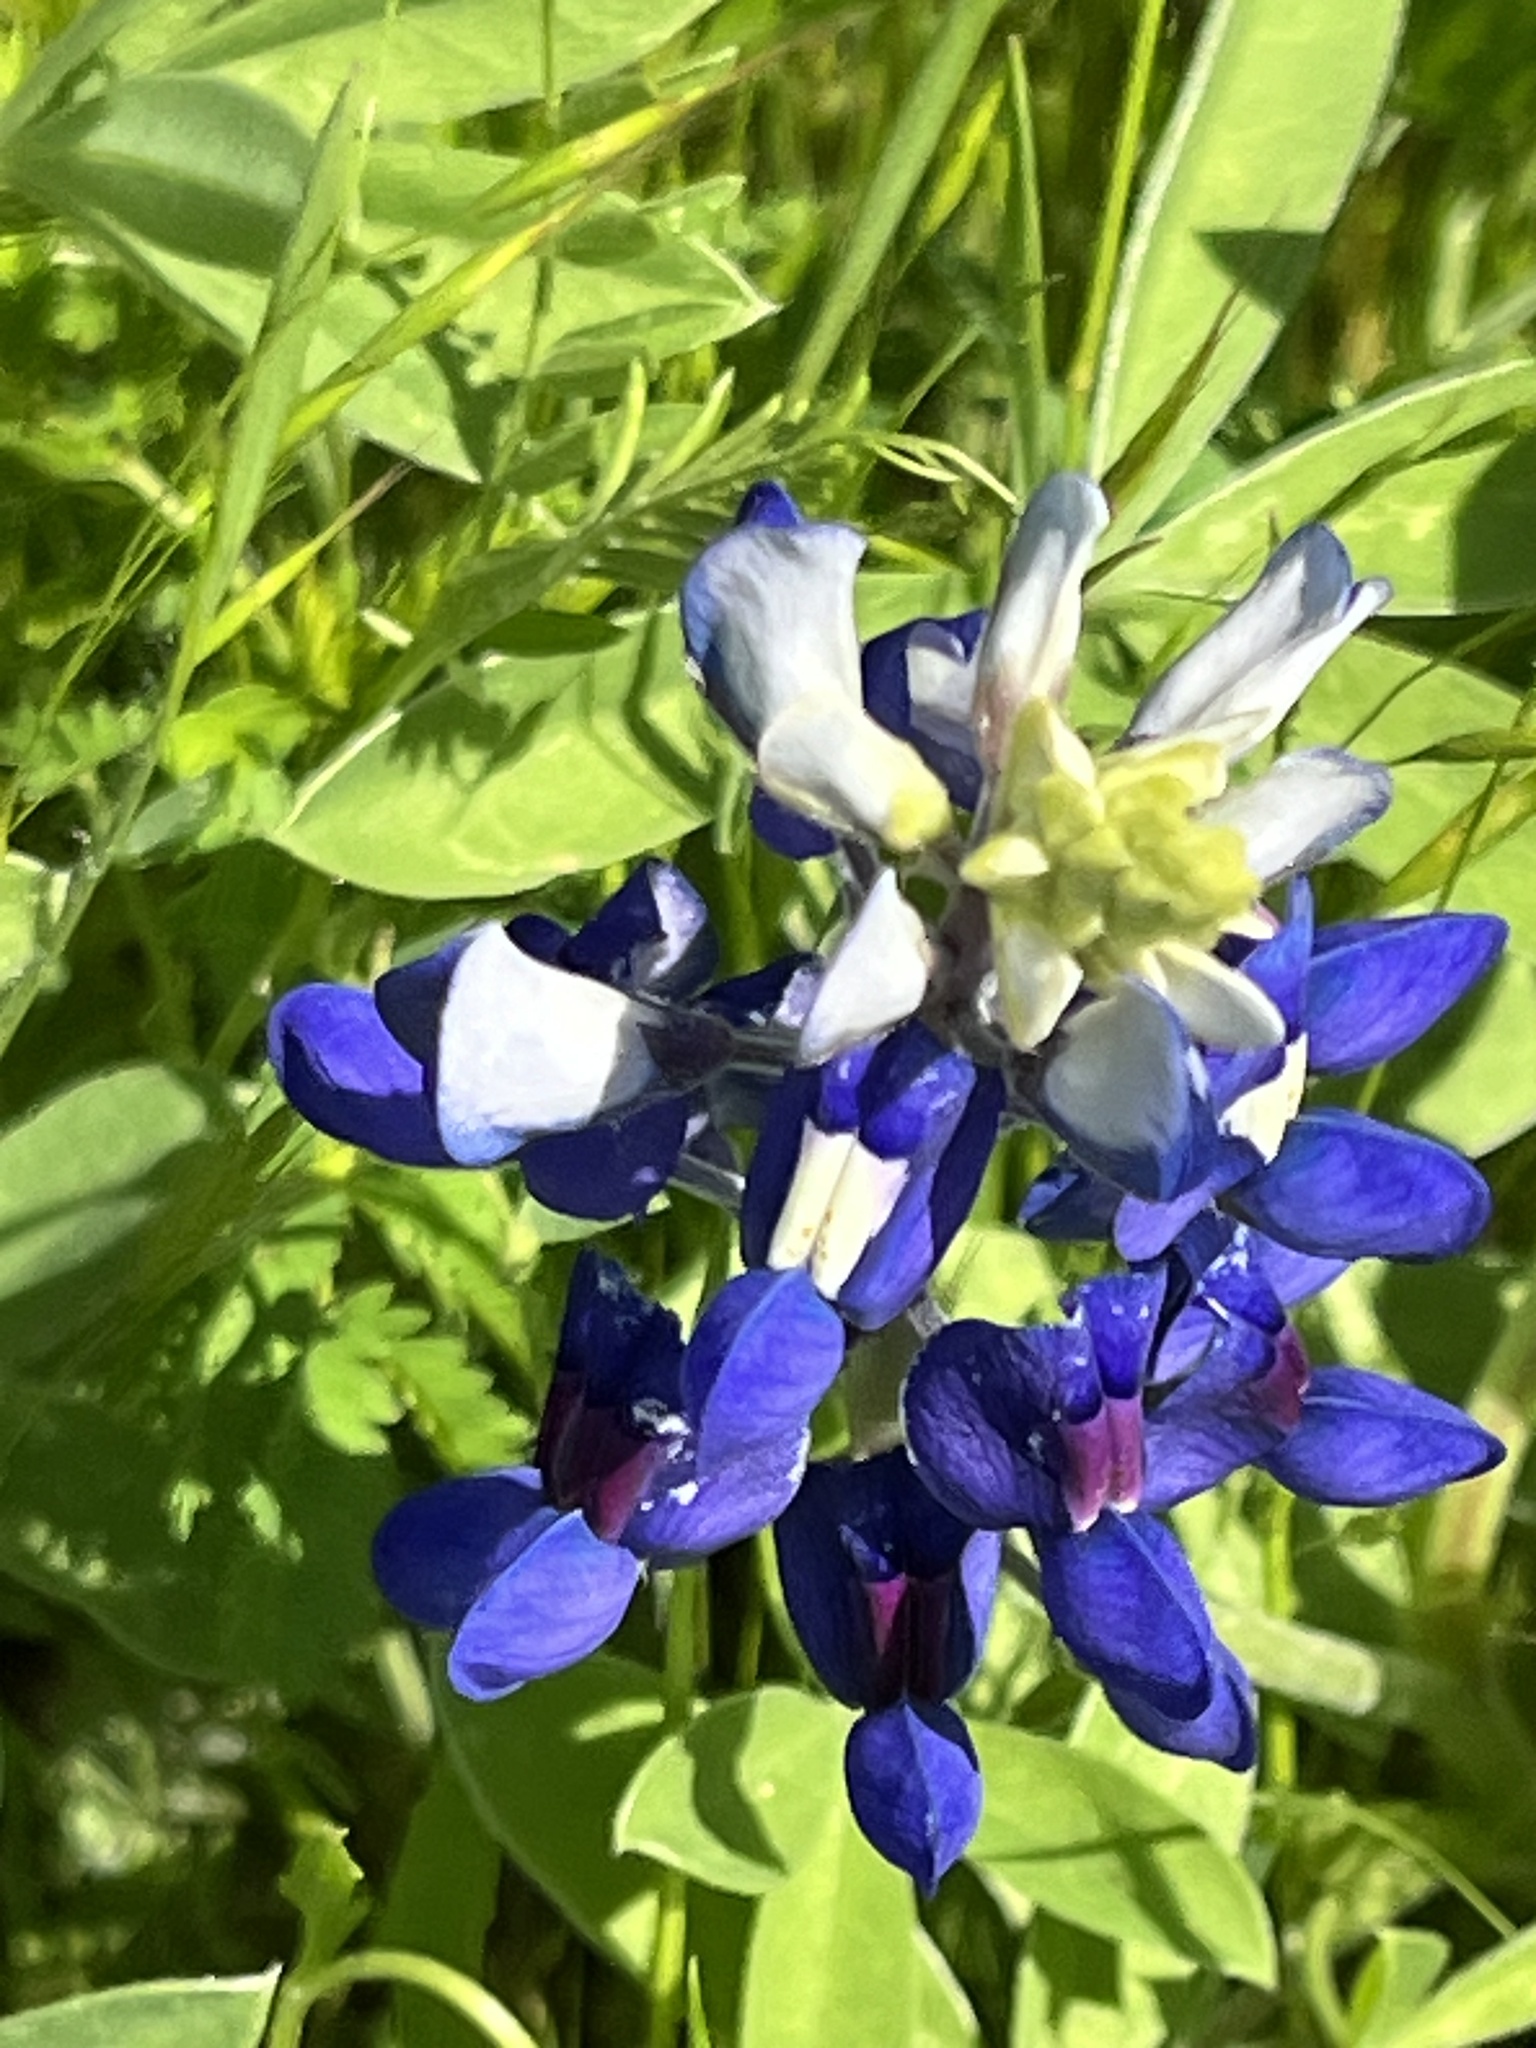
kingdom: Plantae
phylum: Tracheophyta
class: Magnoliopsida
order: Fabales
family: Fabaceae
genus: Lupinus
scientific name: Lupinus texensis
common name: Texas bluebonnet
